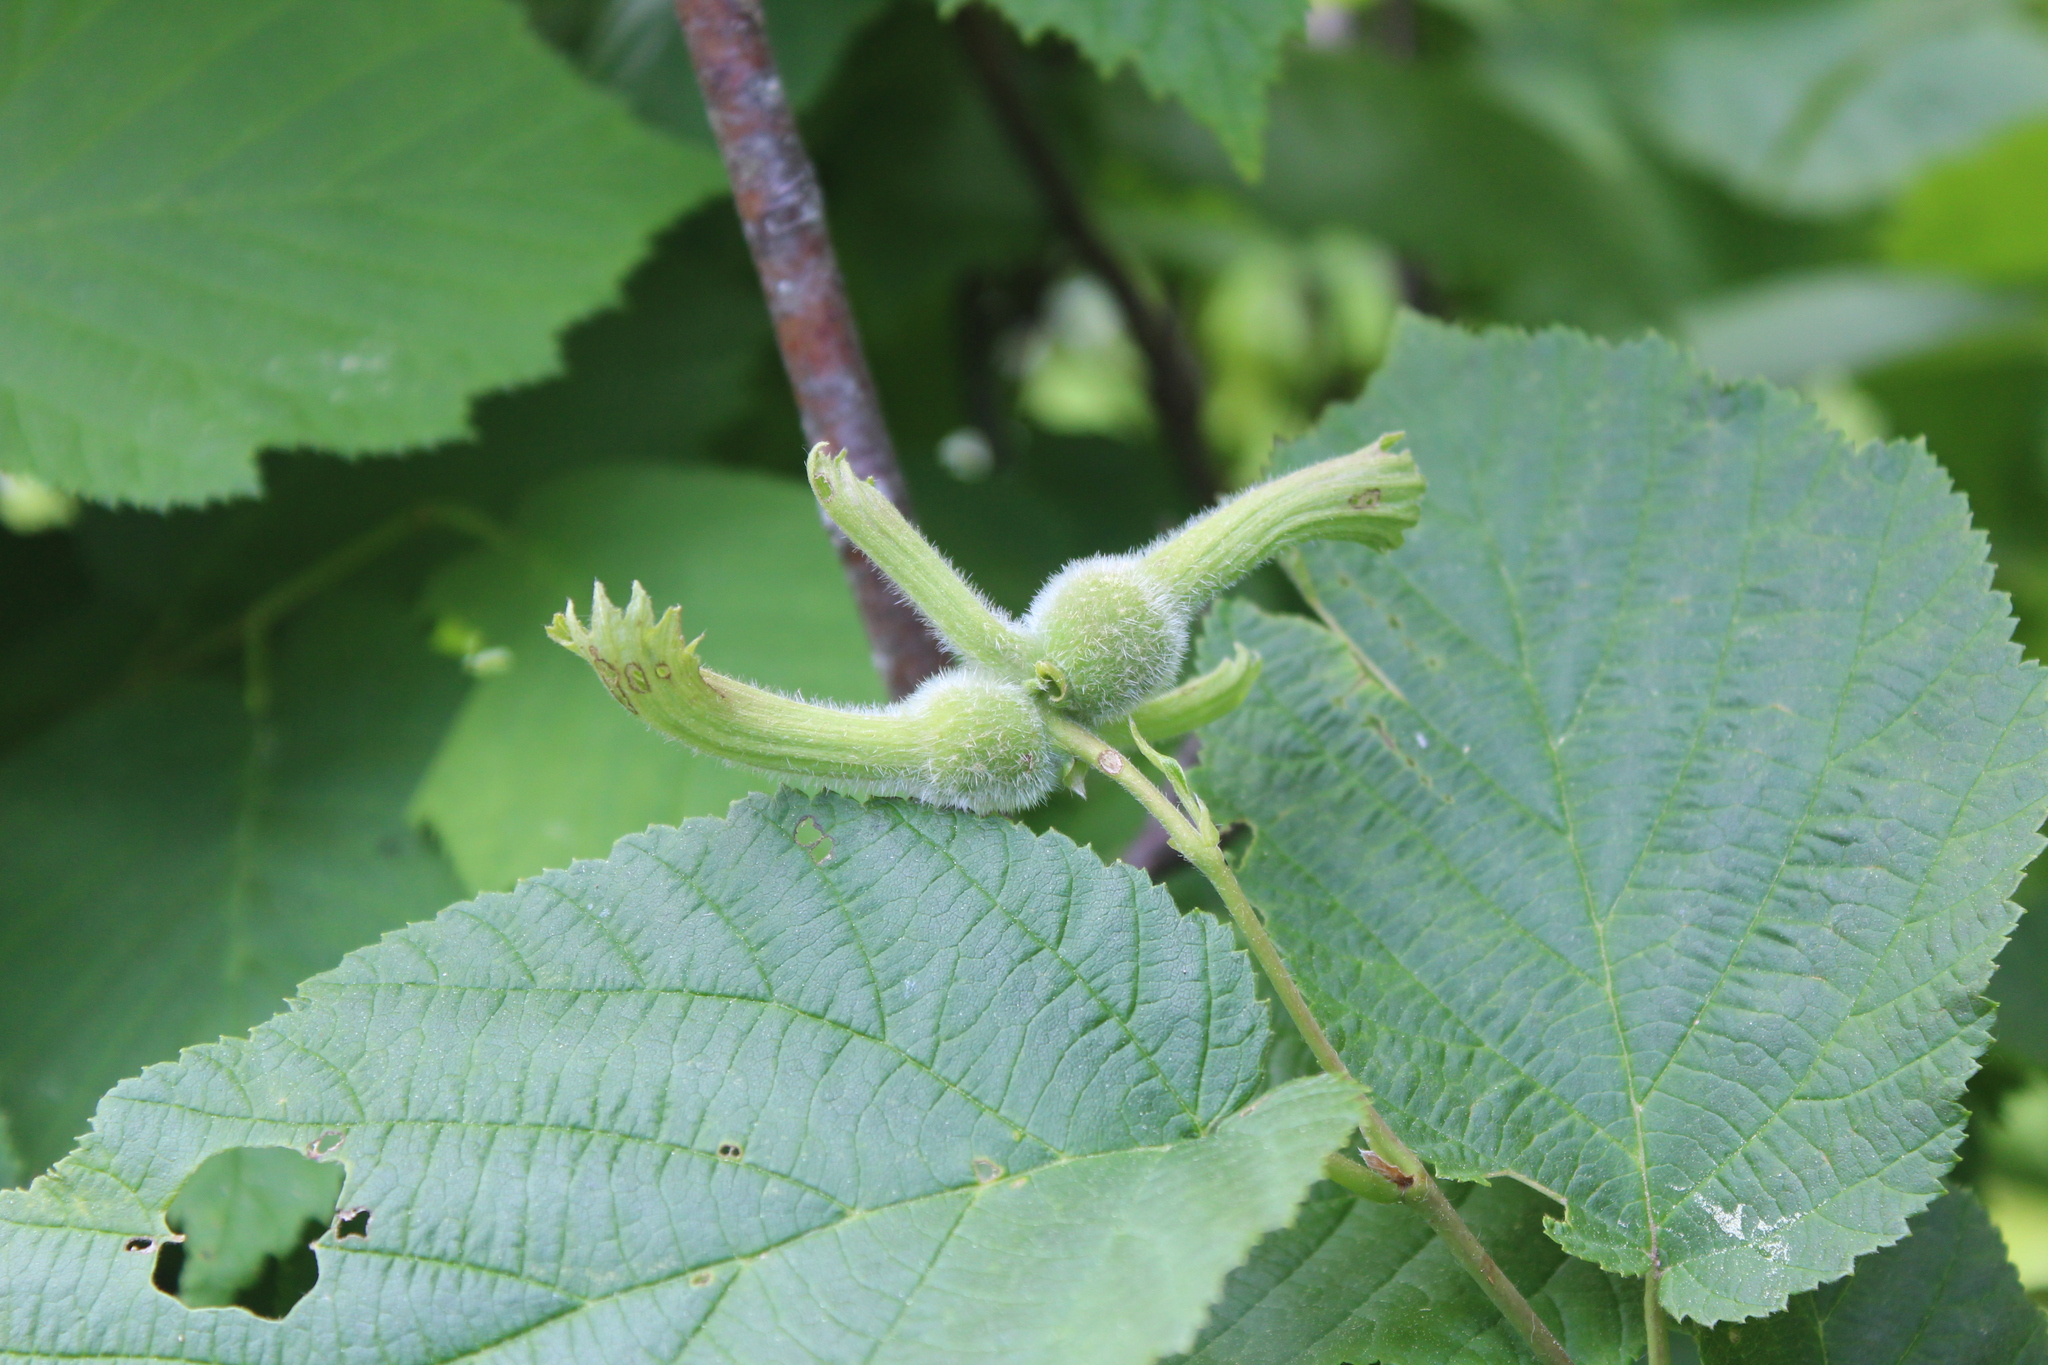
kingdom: Plantae
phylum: Tracheophyta
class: Magnoliopsida
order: Fagales
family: Betulaceae
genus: Corylus
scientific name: Corylus cornuta
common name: Beaked hazel
